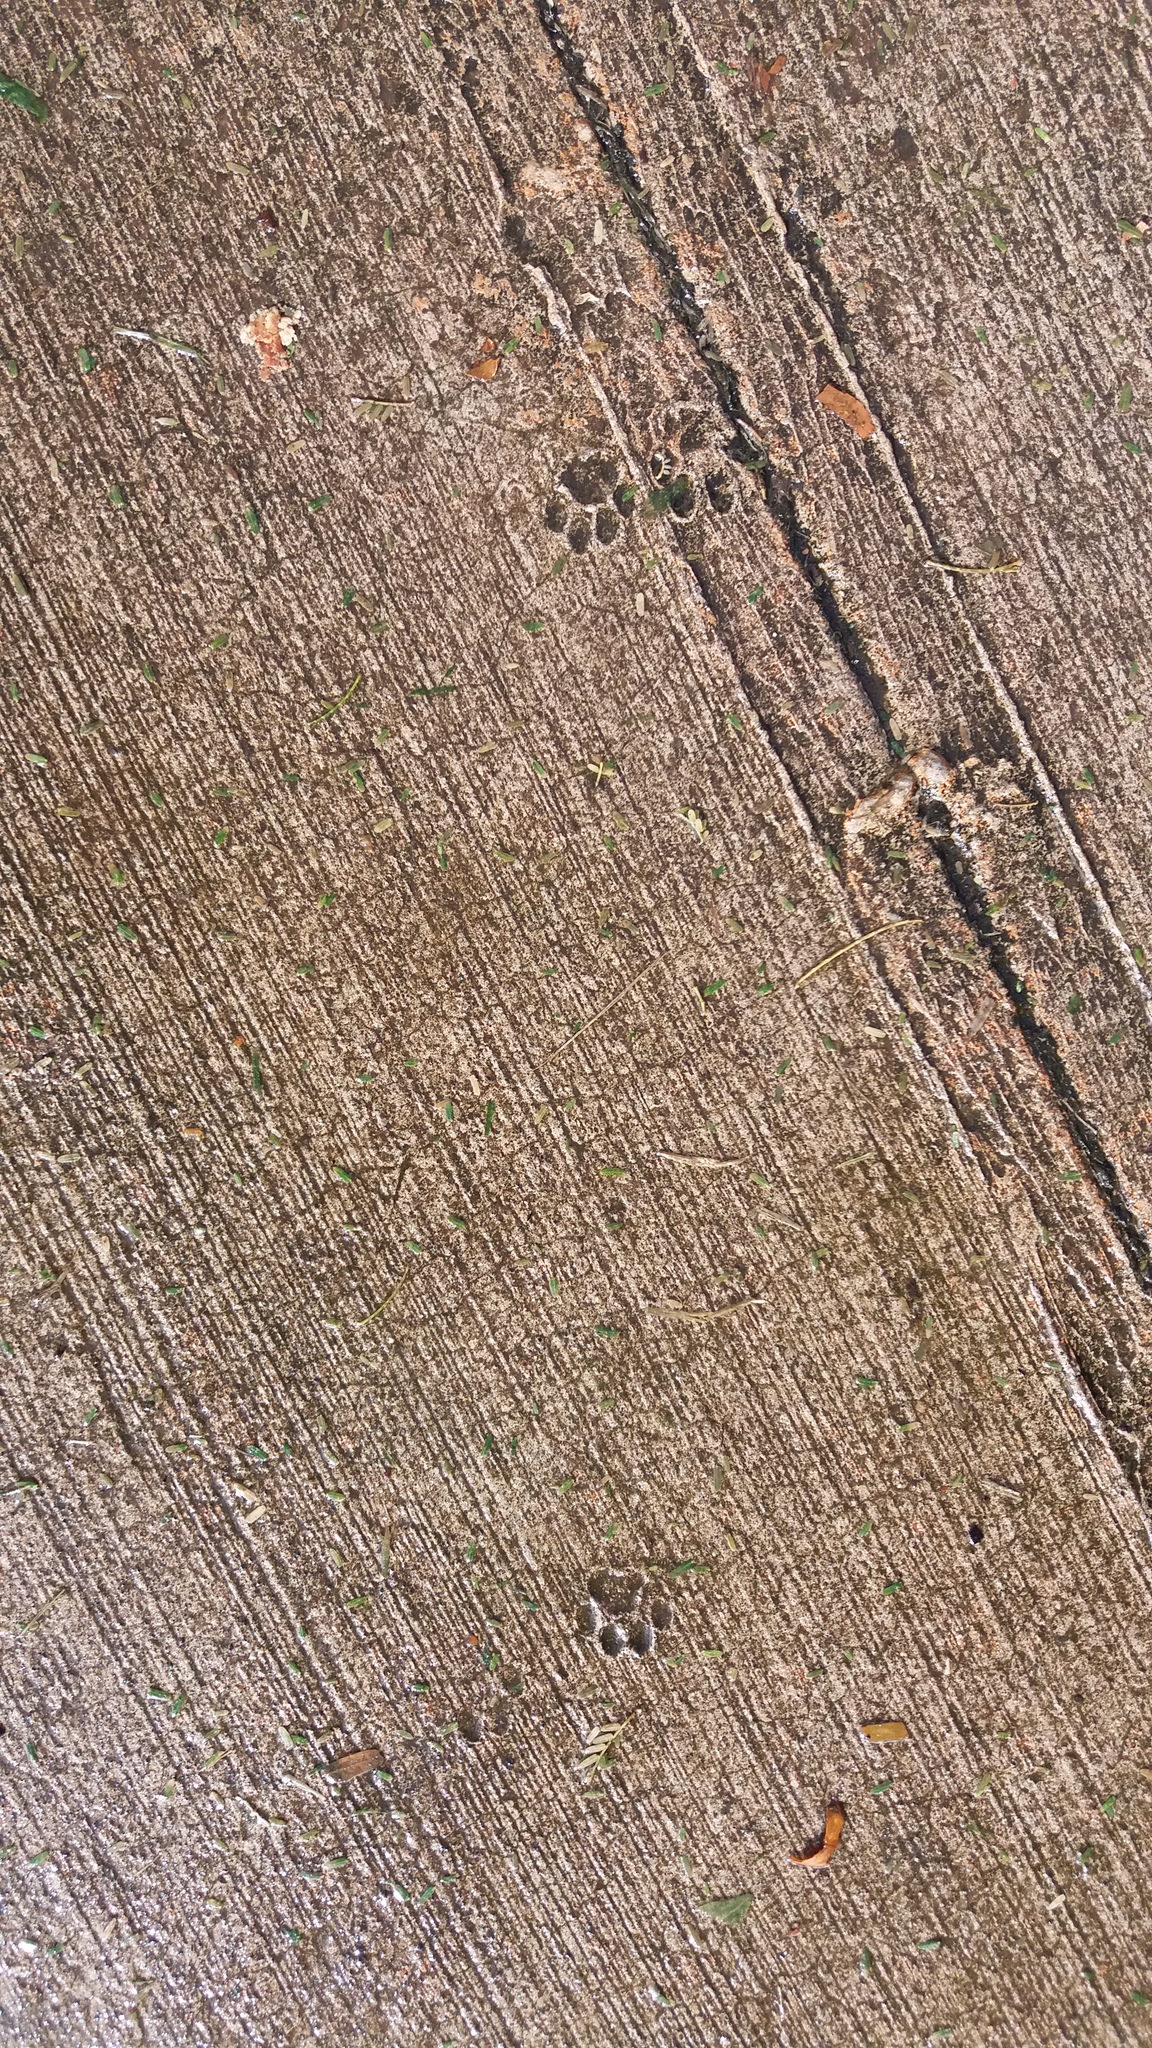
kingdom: Animalia
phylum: Chordata
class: Mammalia
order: Carnivora
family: Felidae
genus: Felis
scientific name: Felis catus
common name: Domestic cat
